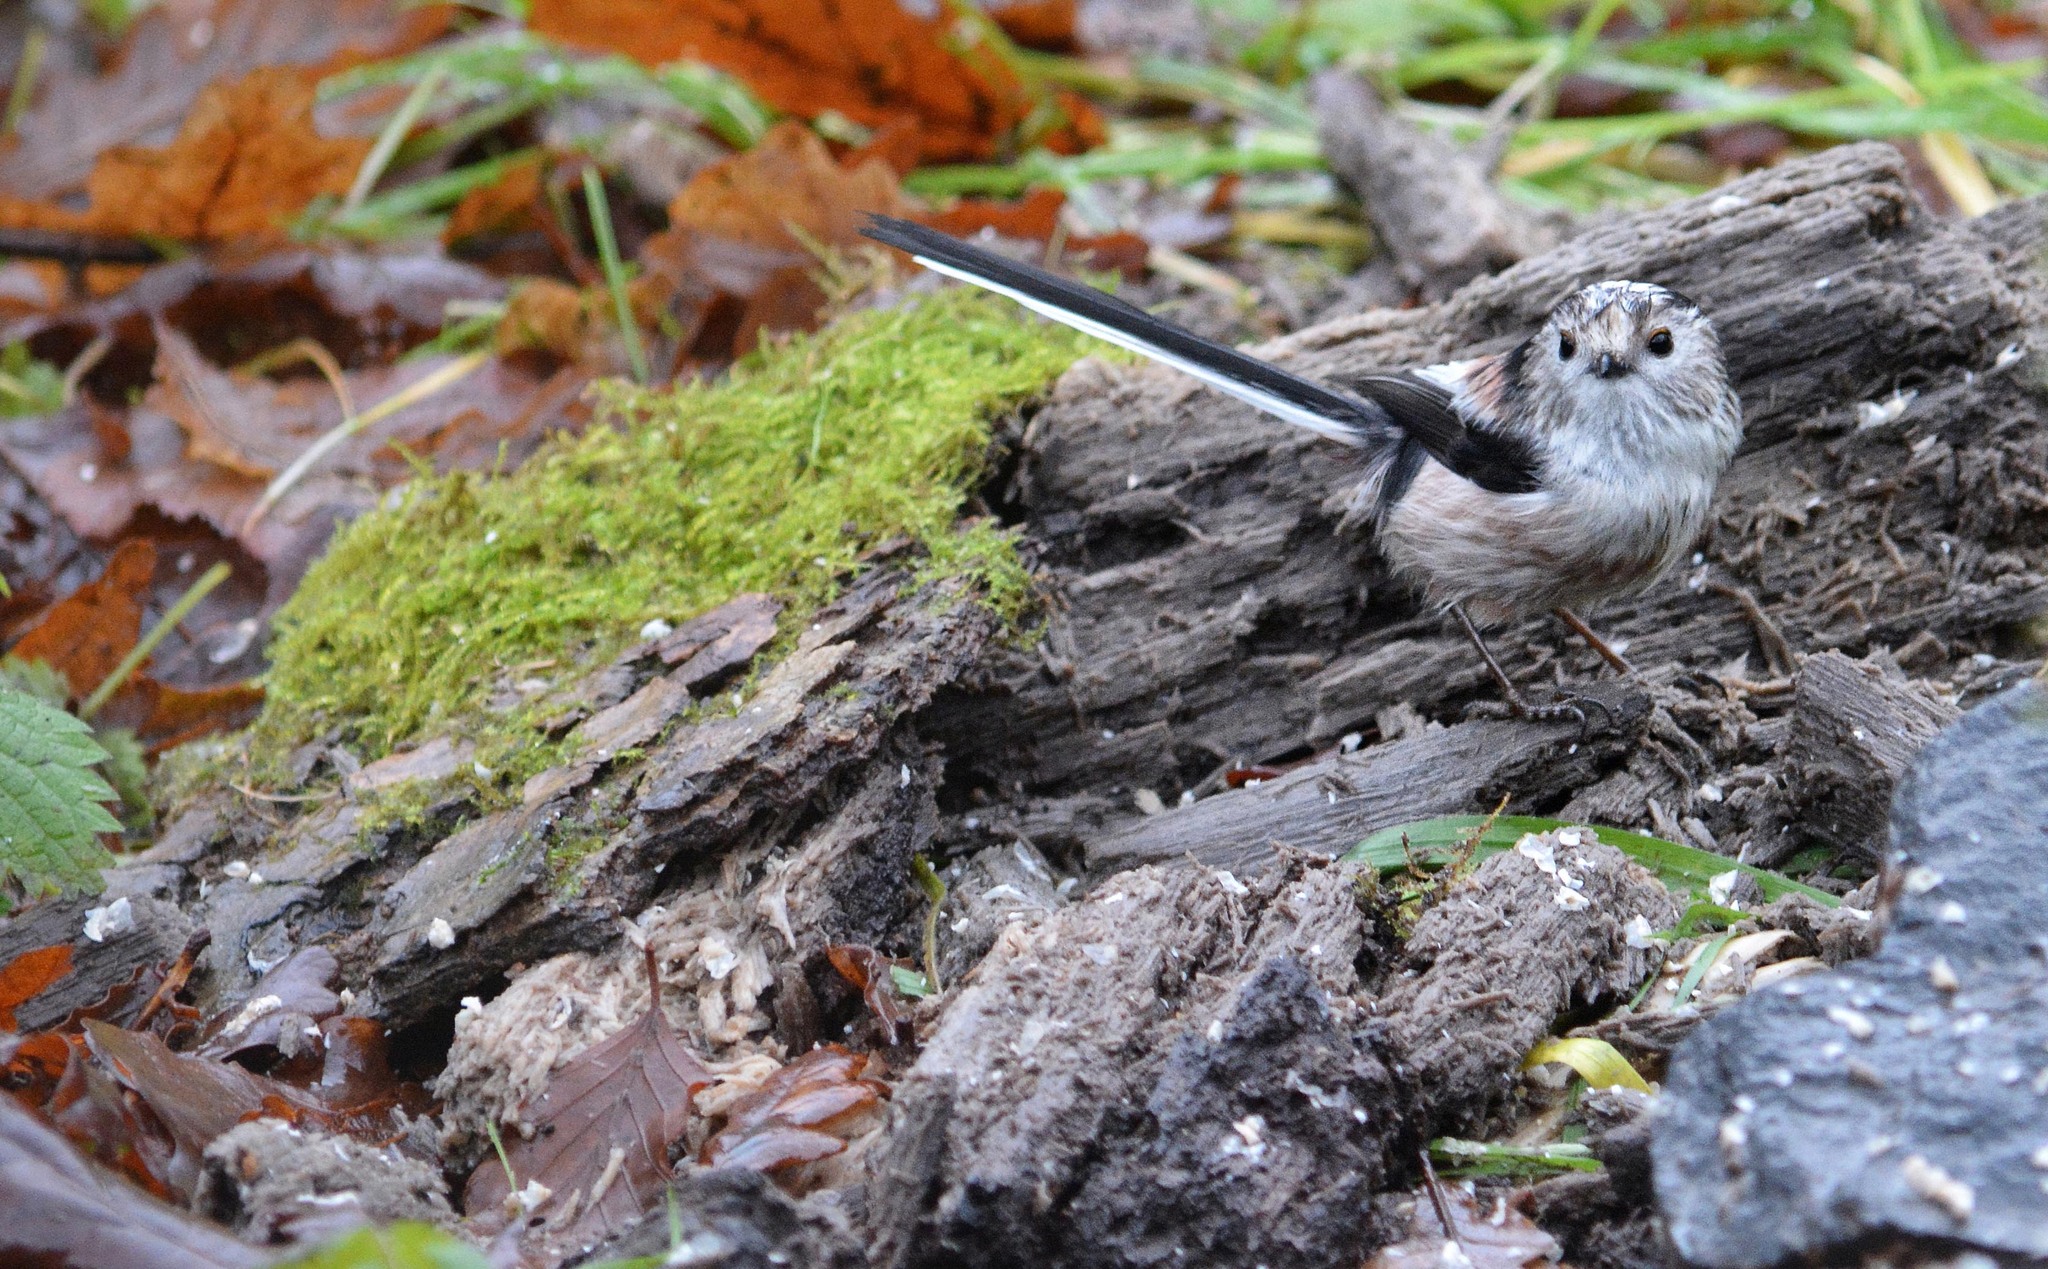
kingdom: Animalia
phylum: Chordata
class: Aves
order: Passeriformes
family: Aegithalidae
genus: Aegithalos
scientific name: Aegithalos caudatus
